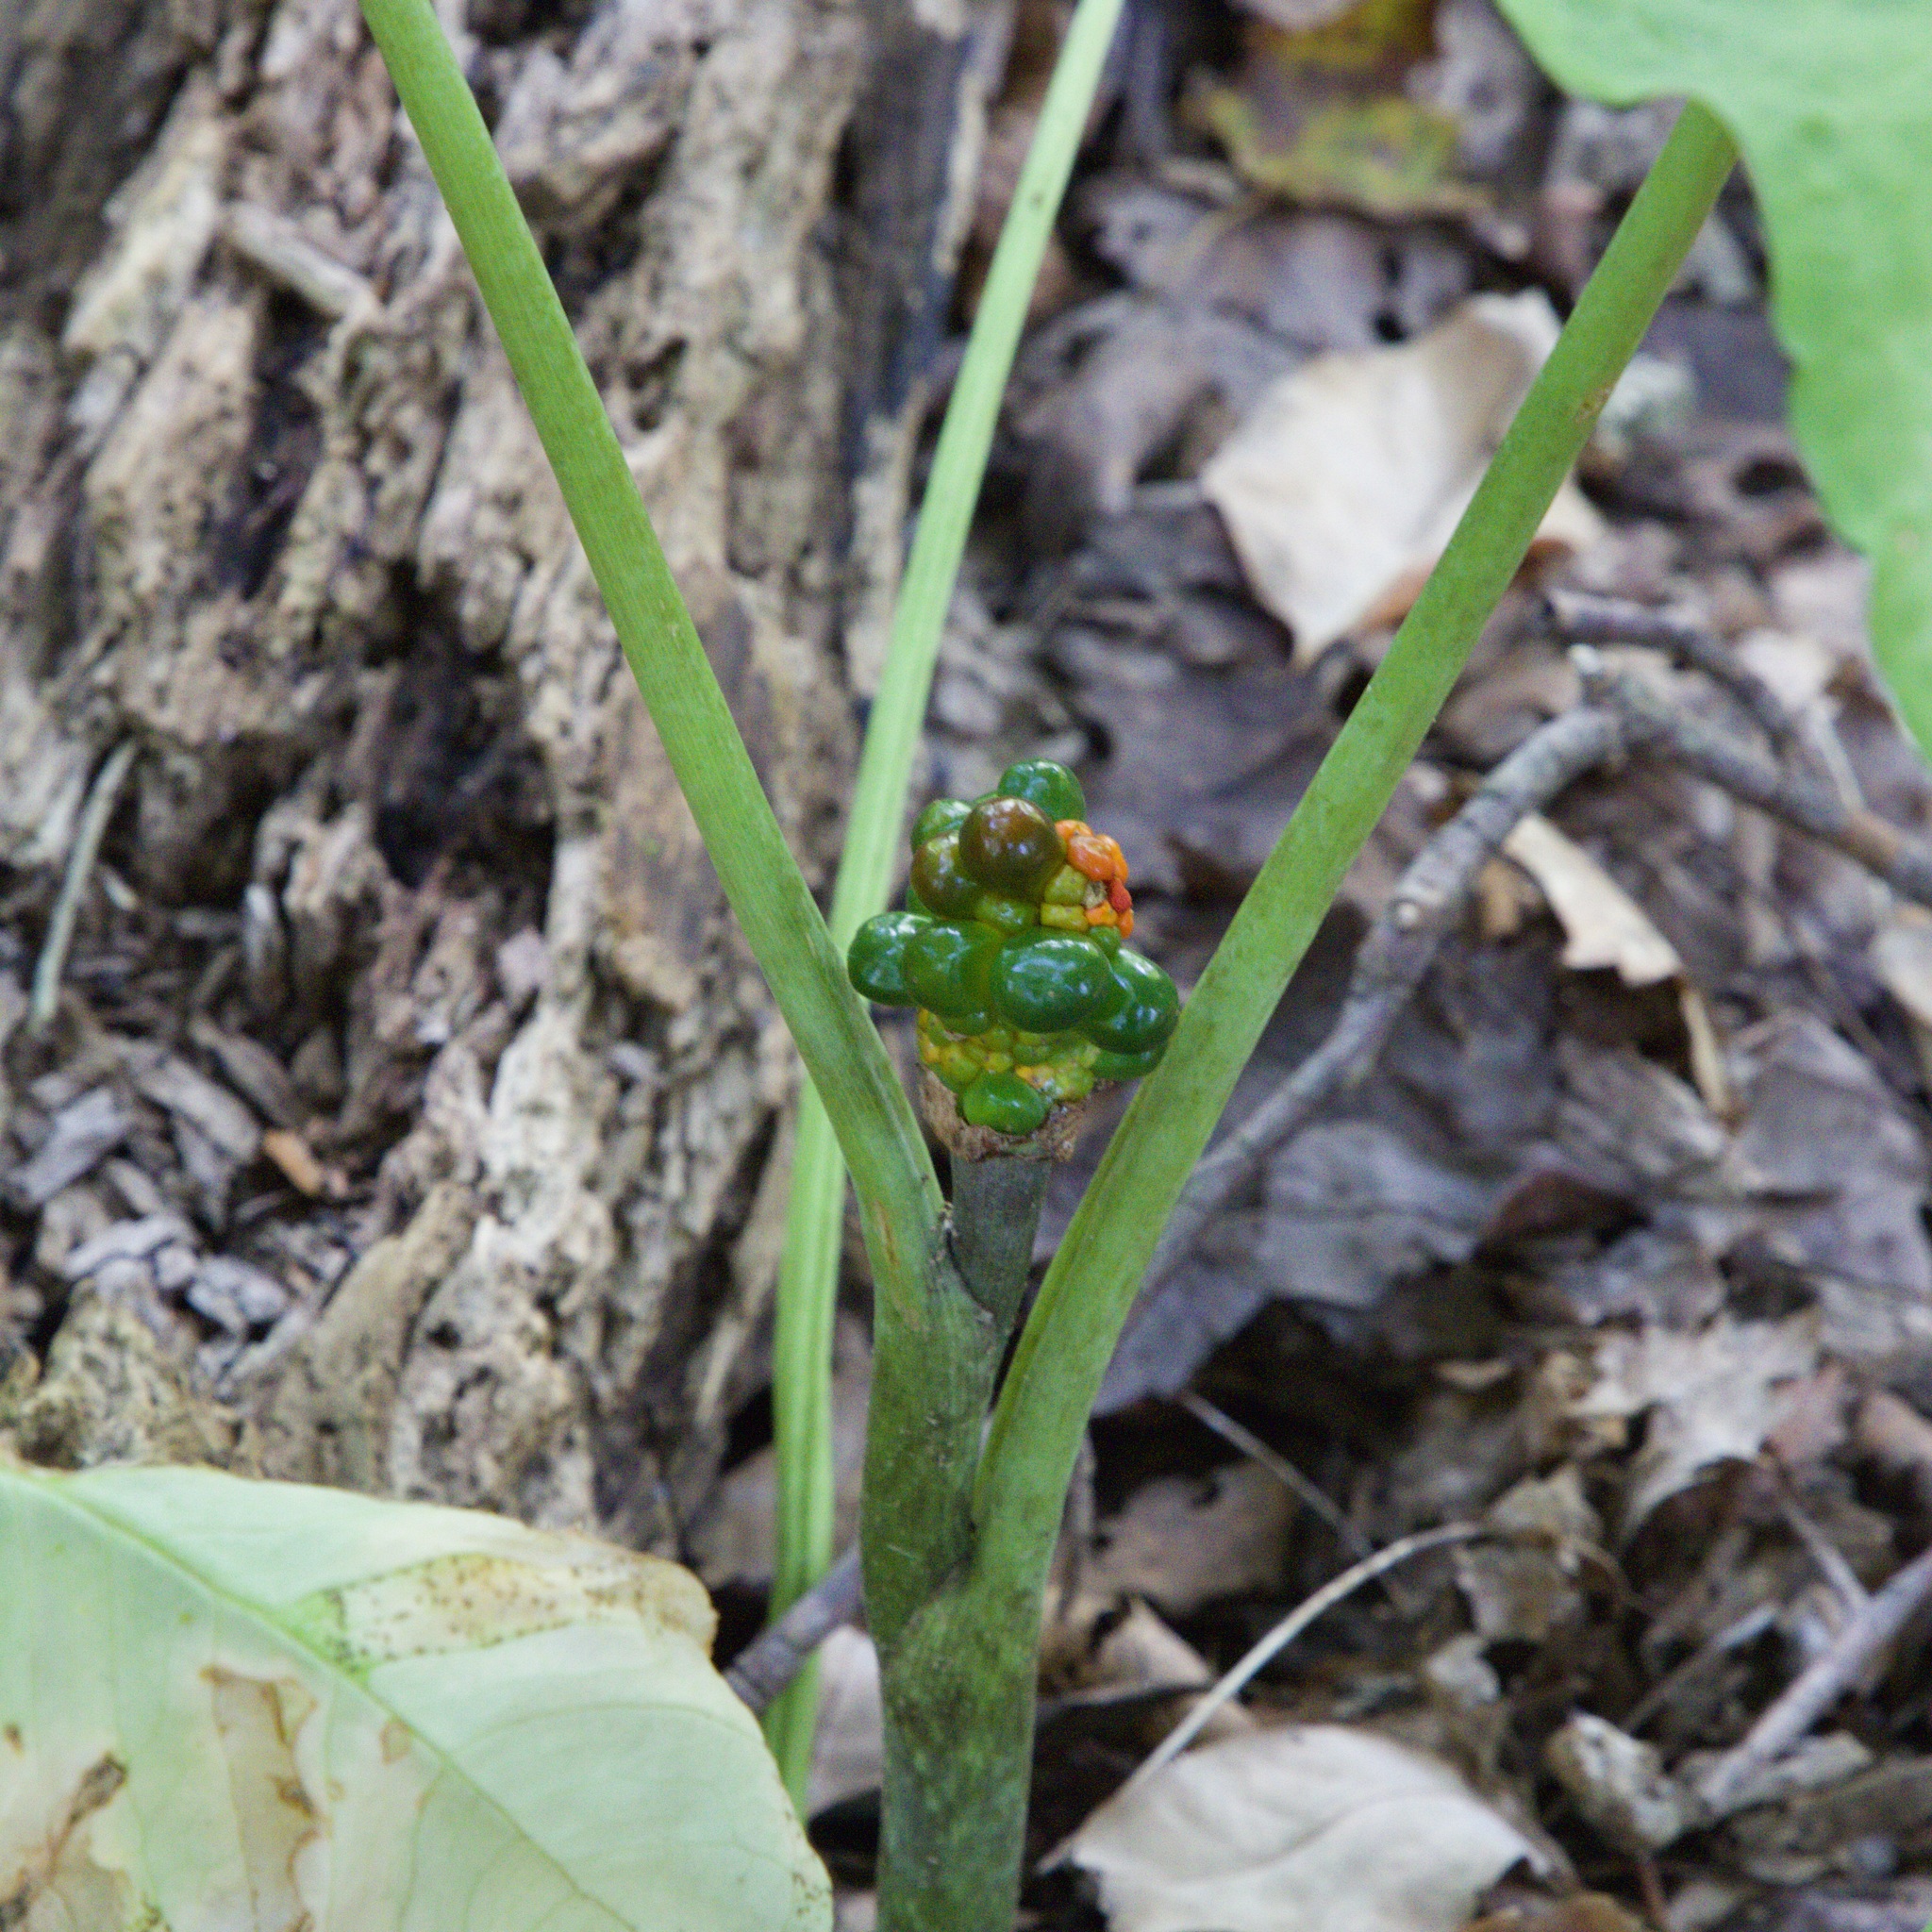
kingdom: Plantae
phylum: Tracheophyta
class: Liliopsida
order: Alismatales
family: Araceae
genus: Arisaema
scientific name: Arisaema triphyllum
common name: Jack-in-the-pulpit
